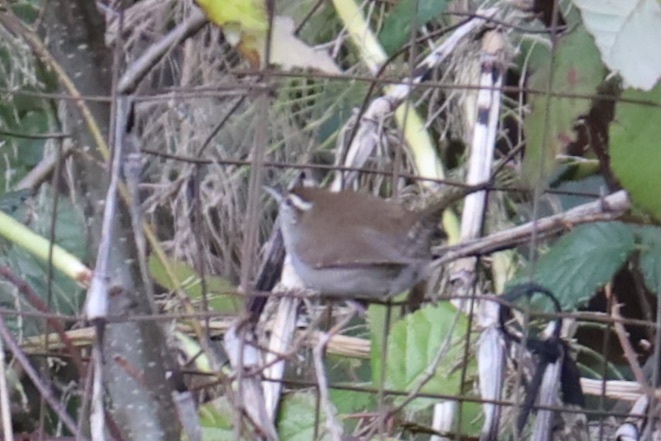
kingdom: Animalia
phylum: Chordata
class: Aves
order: Passeriformes
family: Troglodytidae
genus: Thryomanes
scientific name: Thryomanes bewickii
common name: Bewick's wren
